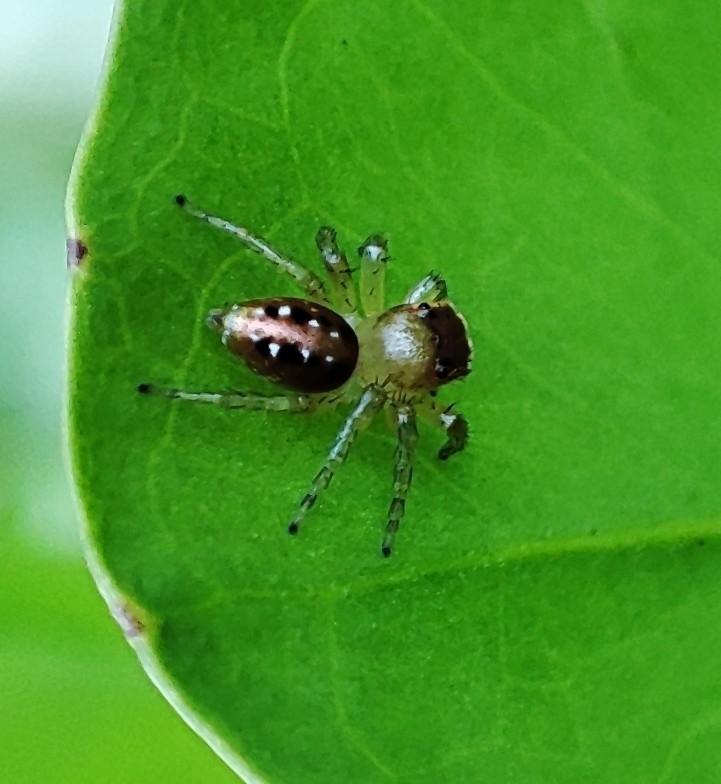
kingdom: Animalia
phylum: Arthropoda
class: Arachnida
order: Araneae
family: Salticidae
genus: Cytaea
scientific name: Cytaea dispalans
